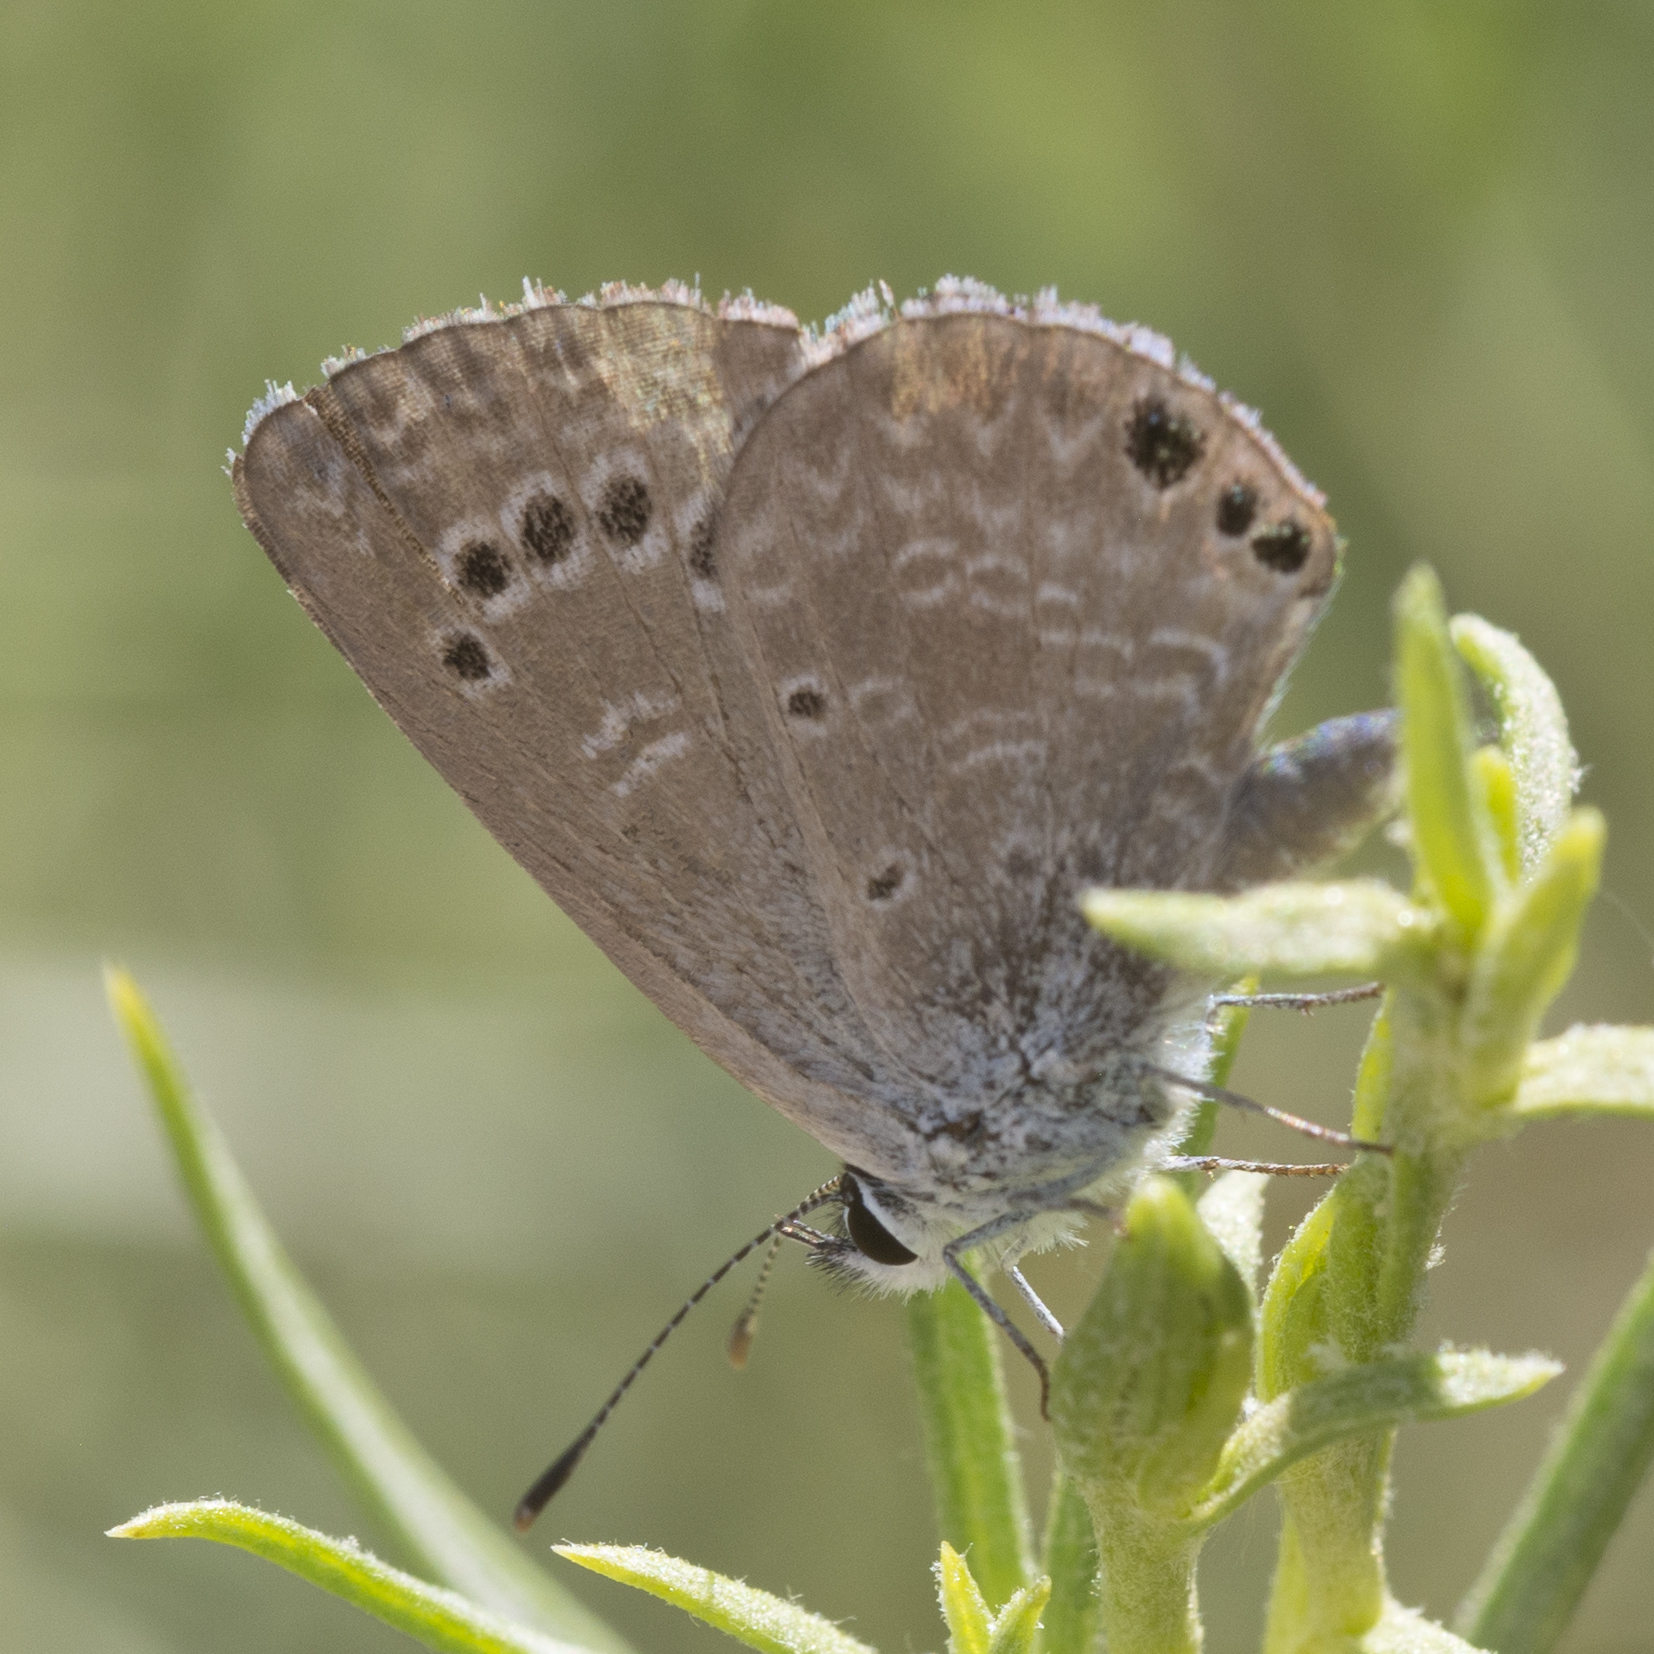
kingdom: Animalia
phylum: Arthropoda
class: Insecta
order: Lepidoptera
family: Lycaenidae
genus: Echinargus
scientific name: Echinargus isola
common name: Reakirt's blue
